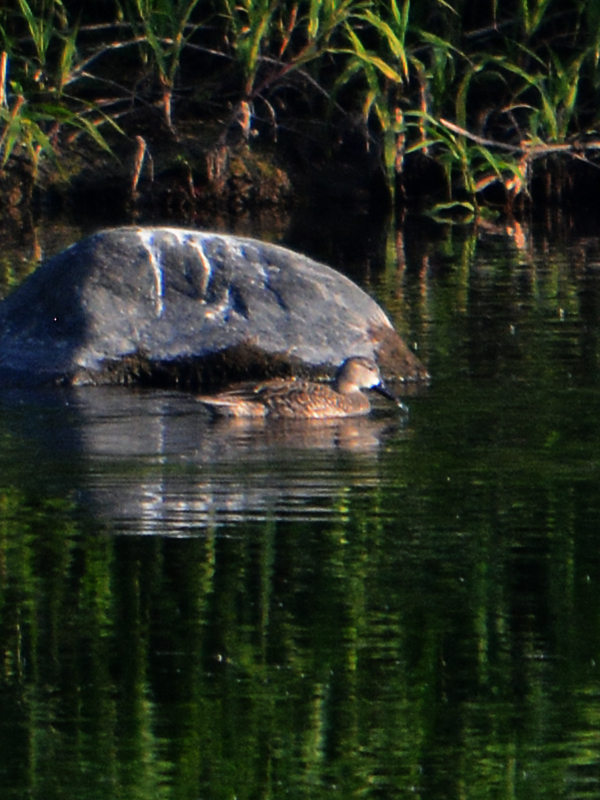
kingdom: Animalia
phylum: Chordata
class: Aves
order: Anseriformes
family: Anatidae
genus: Spatula
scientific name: Spatula discors
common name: Blue-winged teal
